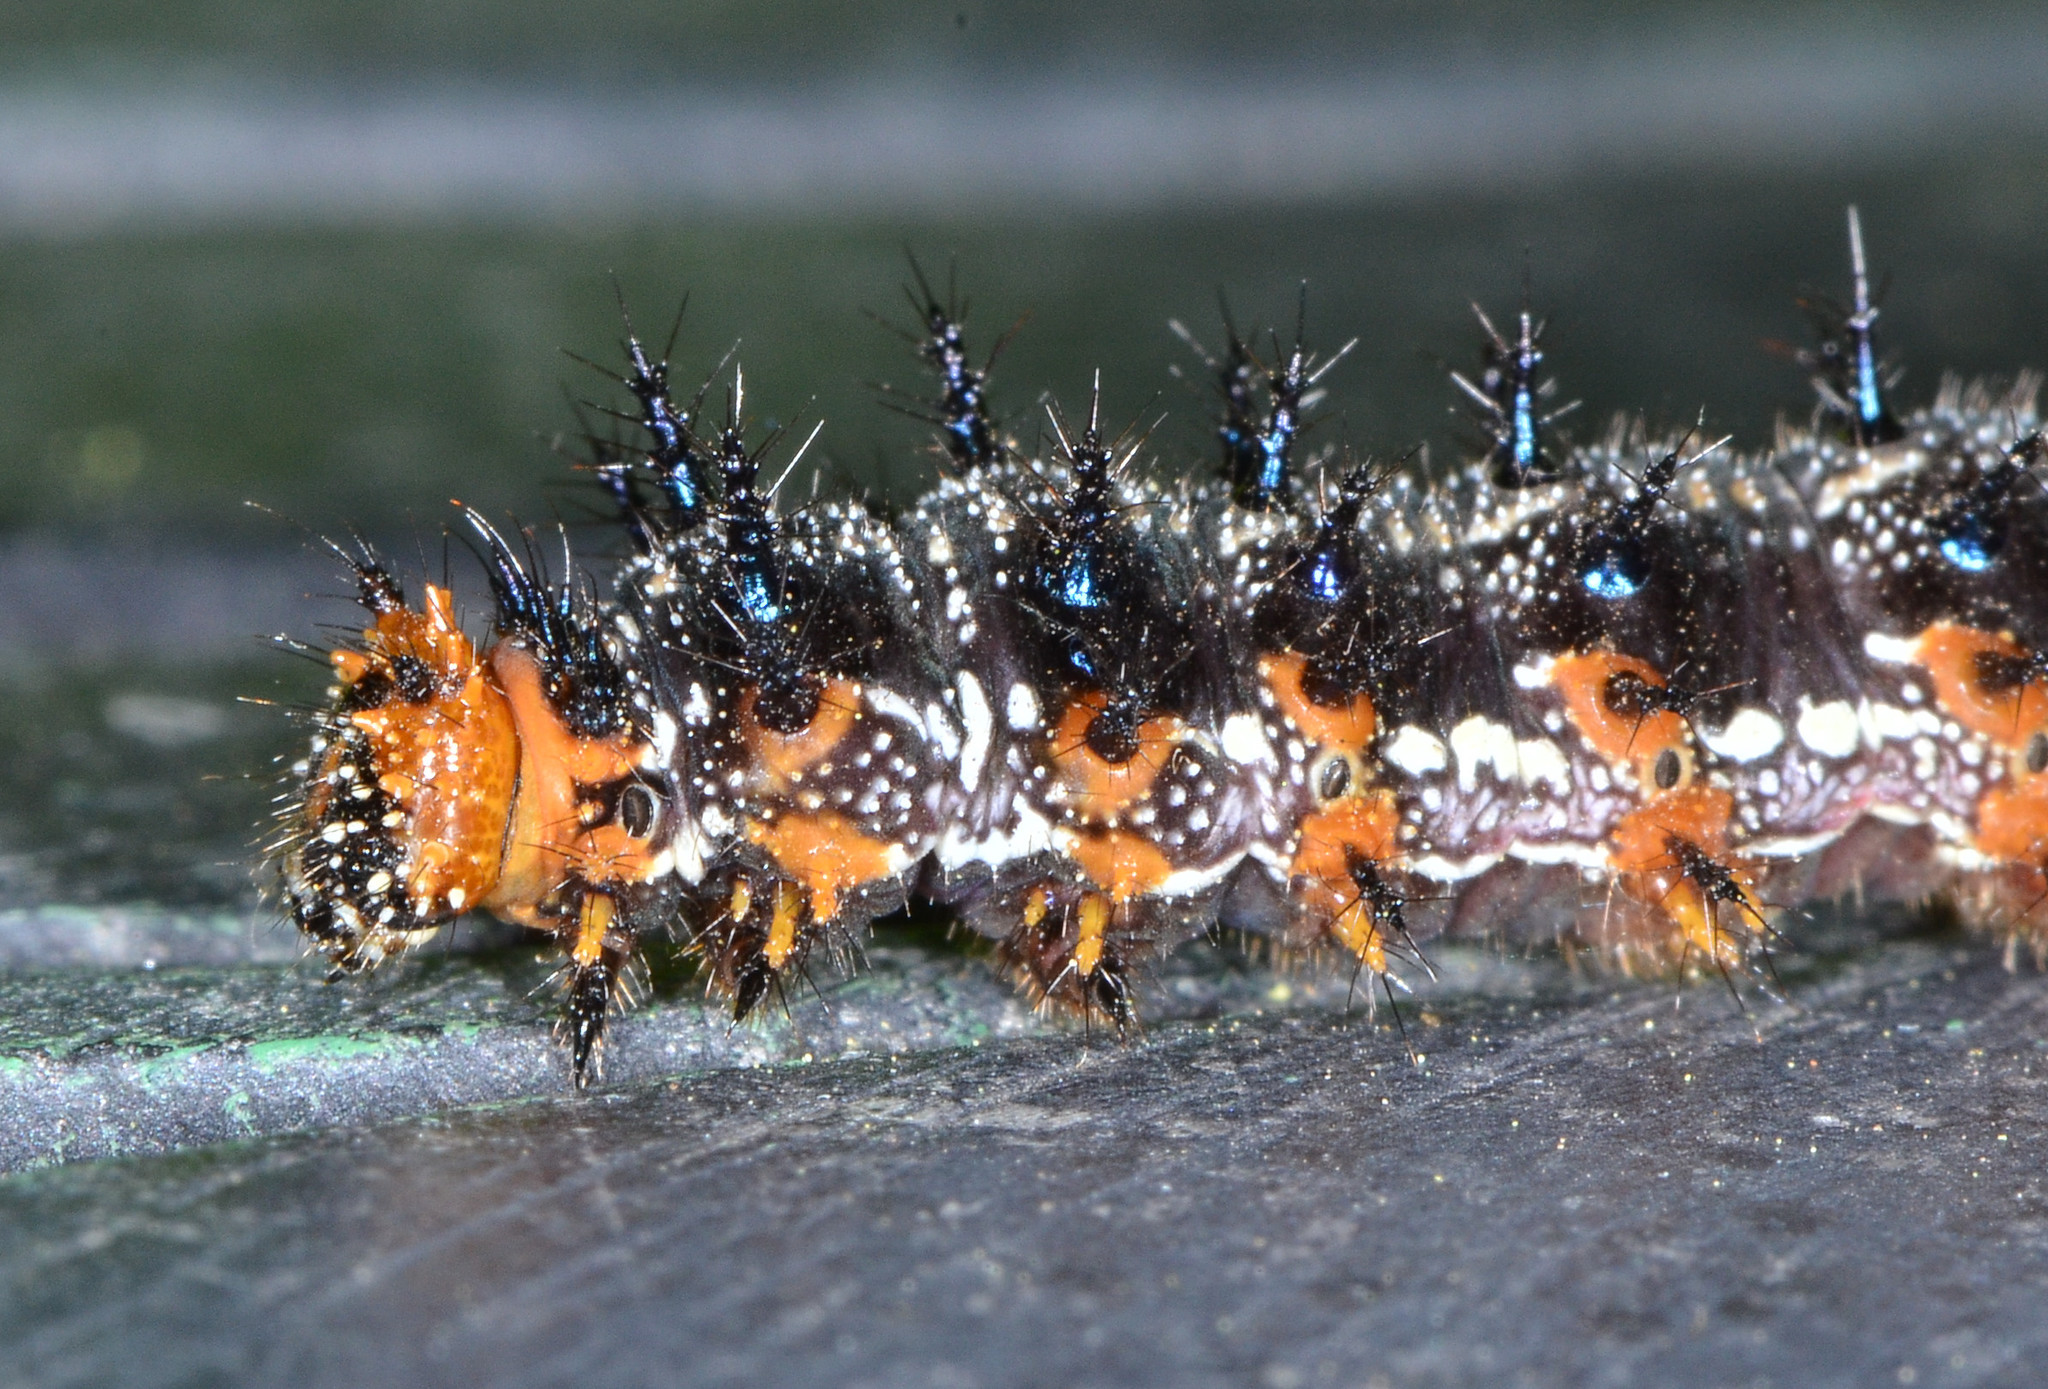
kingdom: Animalia
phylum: Arthropoda
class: Insecta
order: Lepidoptera
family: Nymphalidae
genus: Junonia
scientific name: Junonia grisea
